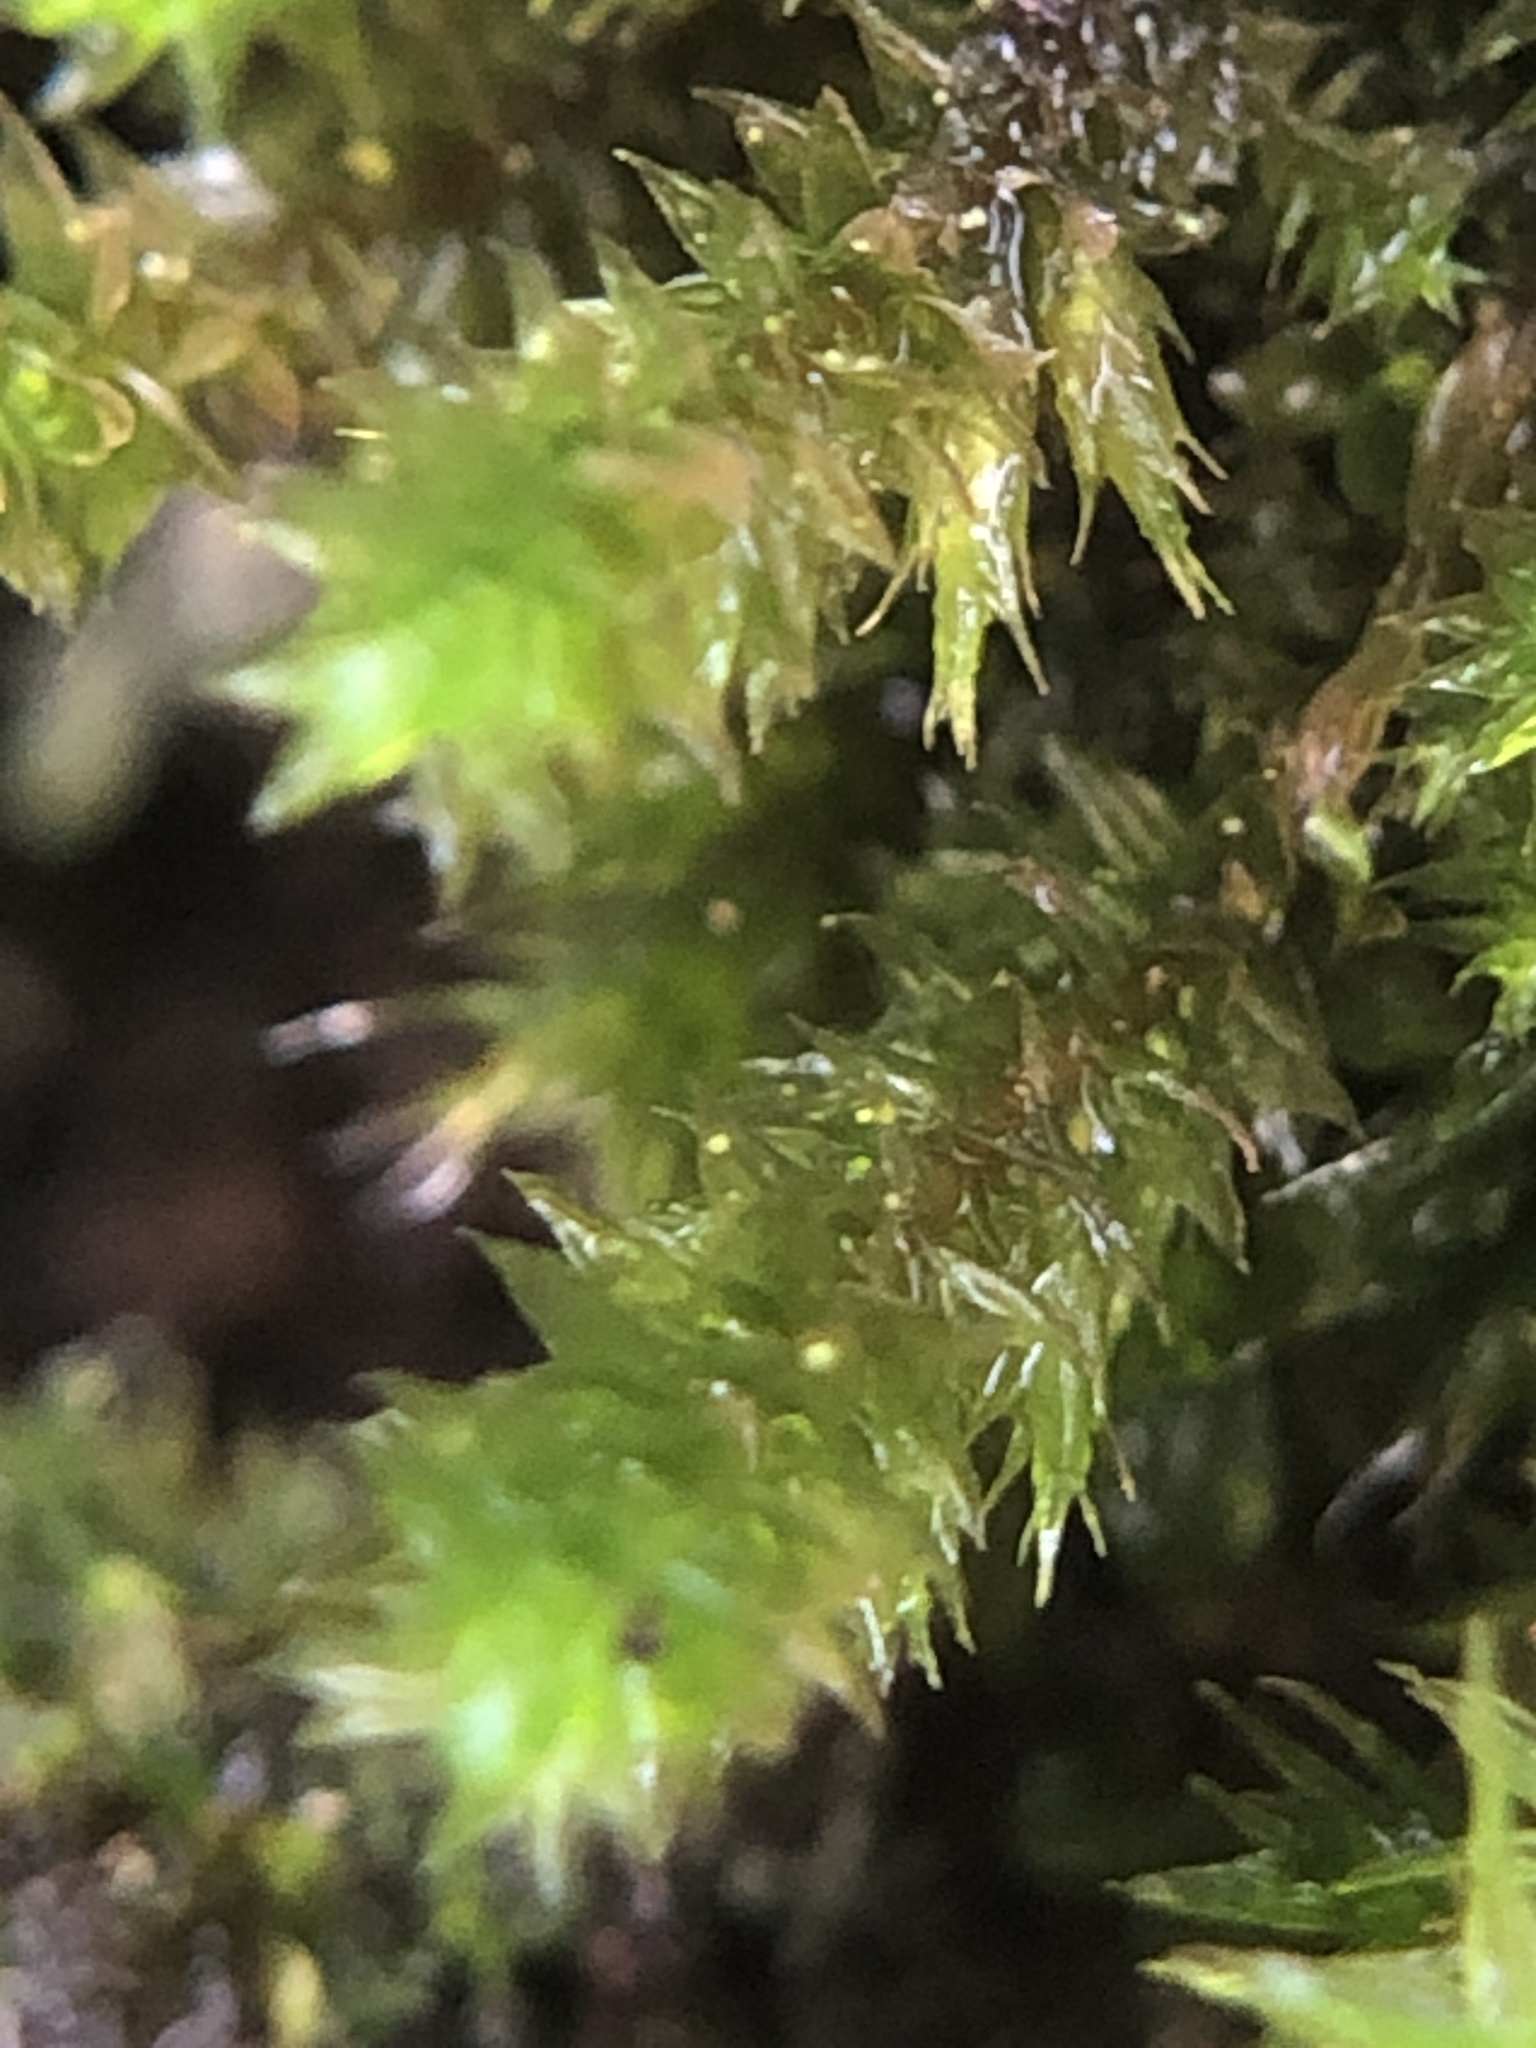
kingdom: Plantae
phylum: Bryophyta
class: Bryopsida
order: Hypnales
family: Cryphaeaceae
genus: Cryphaea
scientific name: Cryphaea heteromalla
